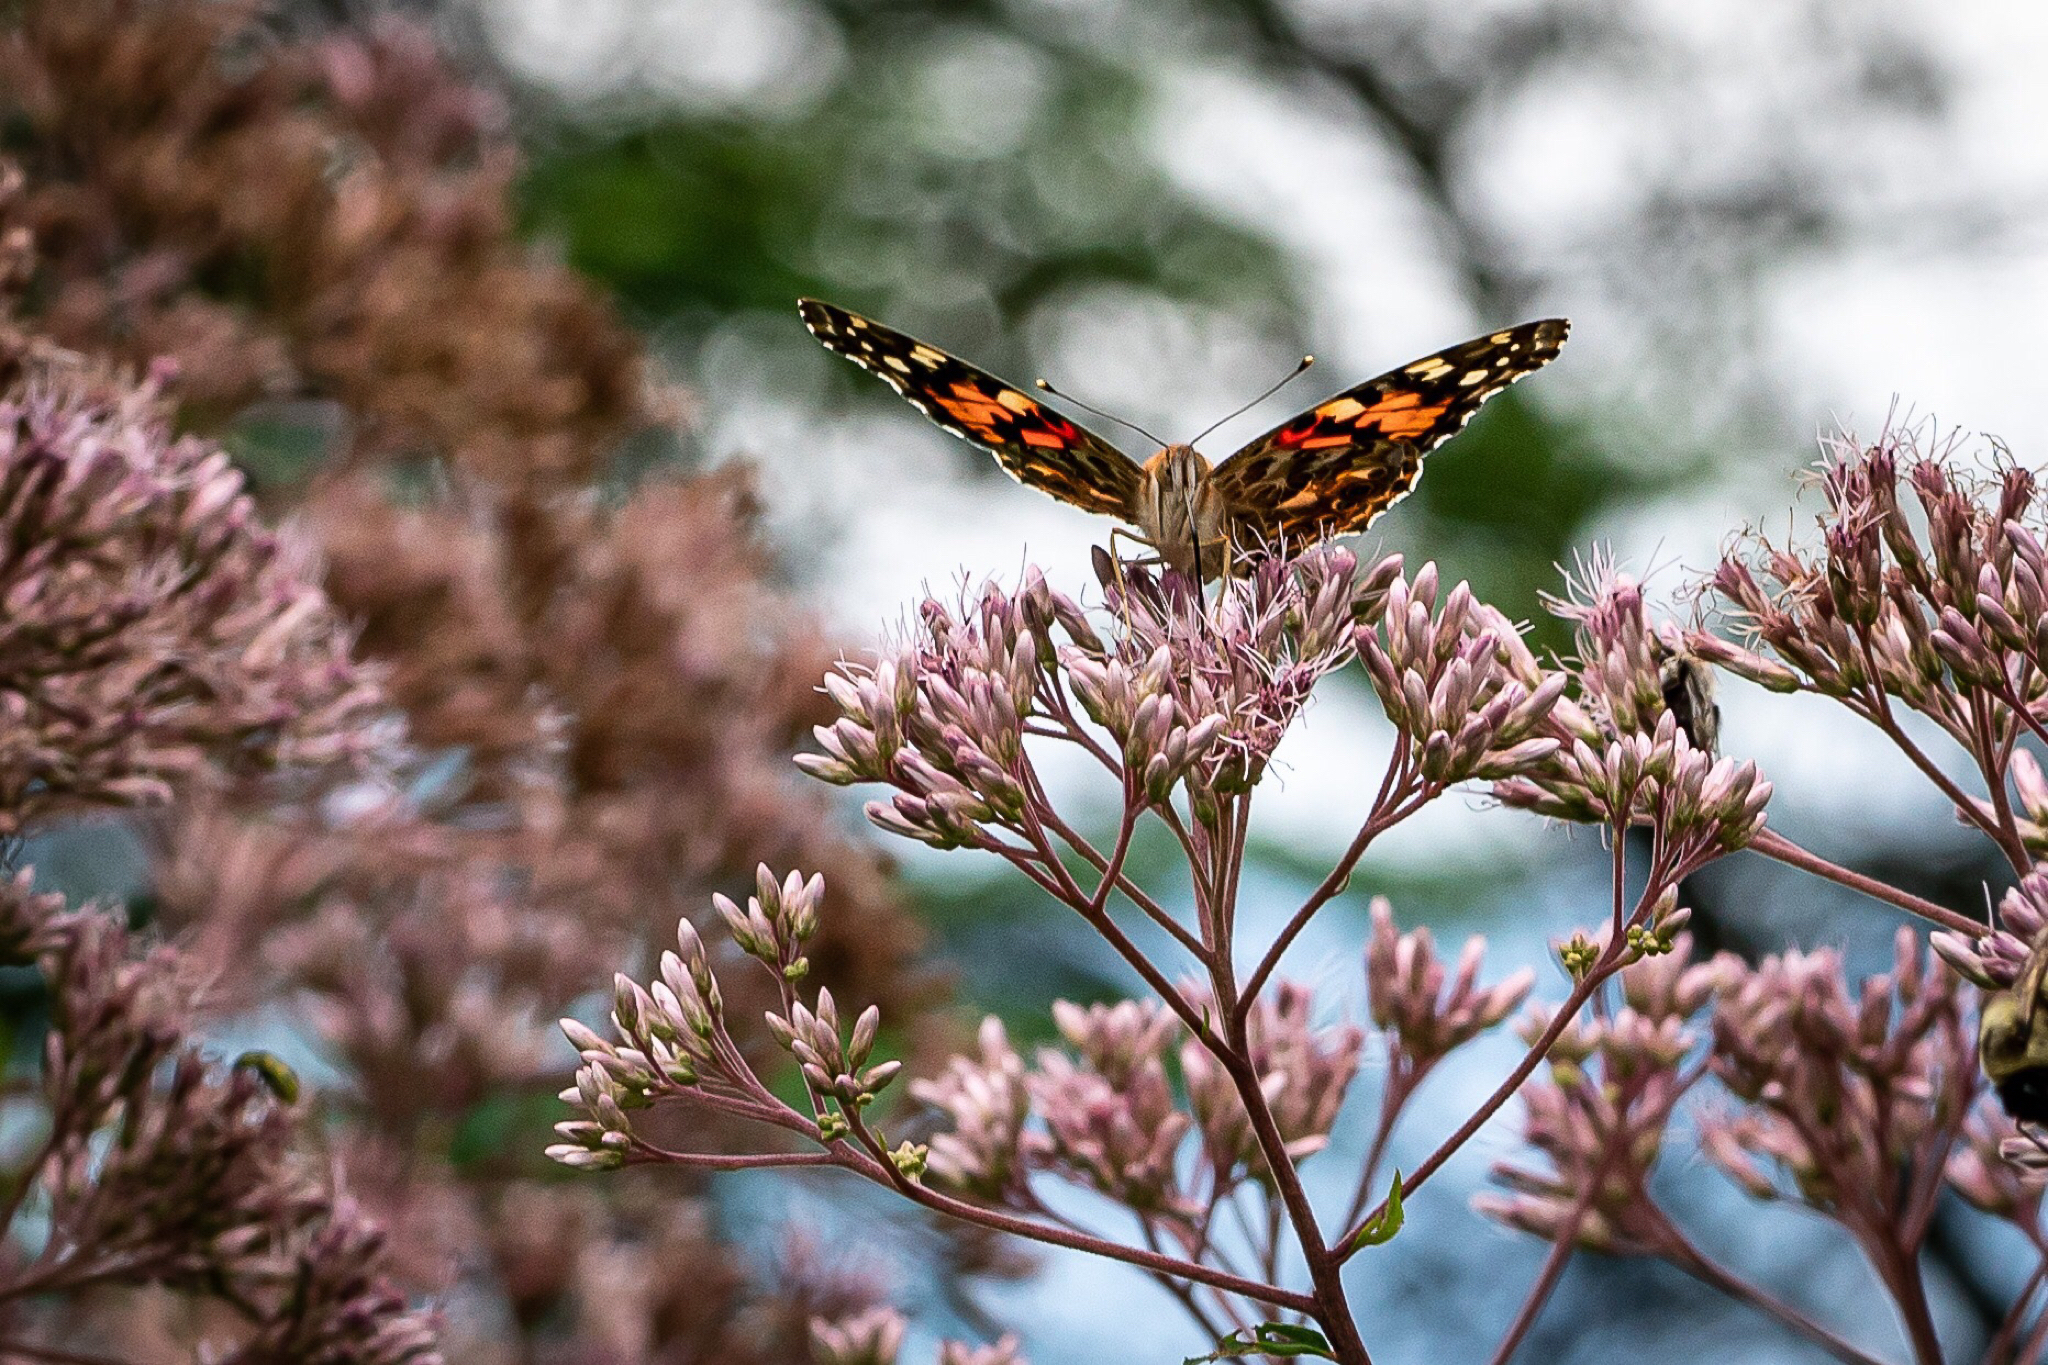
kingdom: Animalia
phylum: Arthropoda
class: Insecta
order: Lepidoptera
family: Nymphalidae
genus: Vanessa
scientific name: Vanessa cardui
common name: Painted lady
